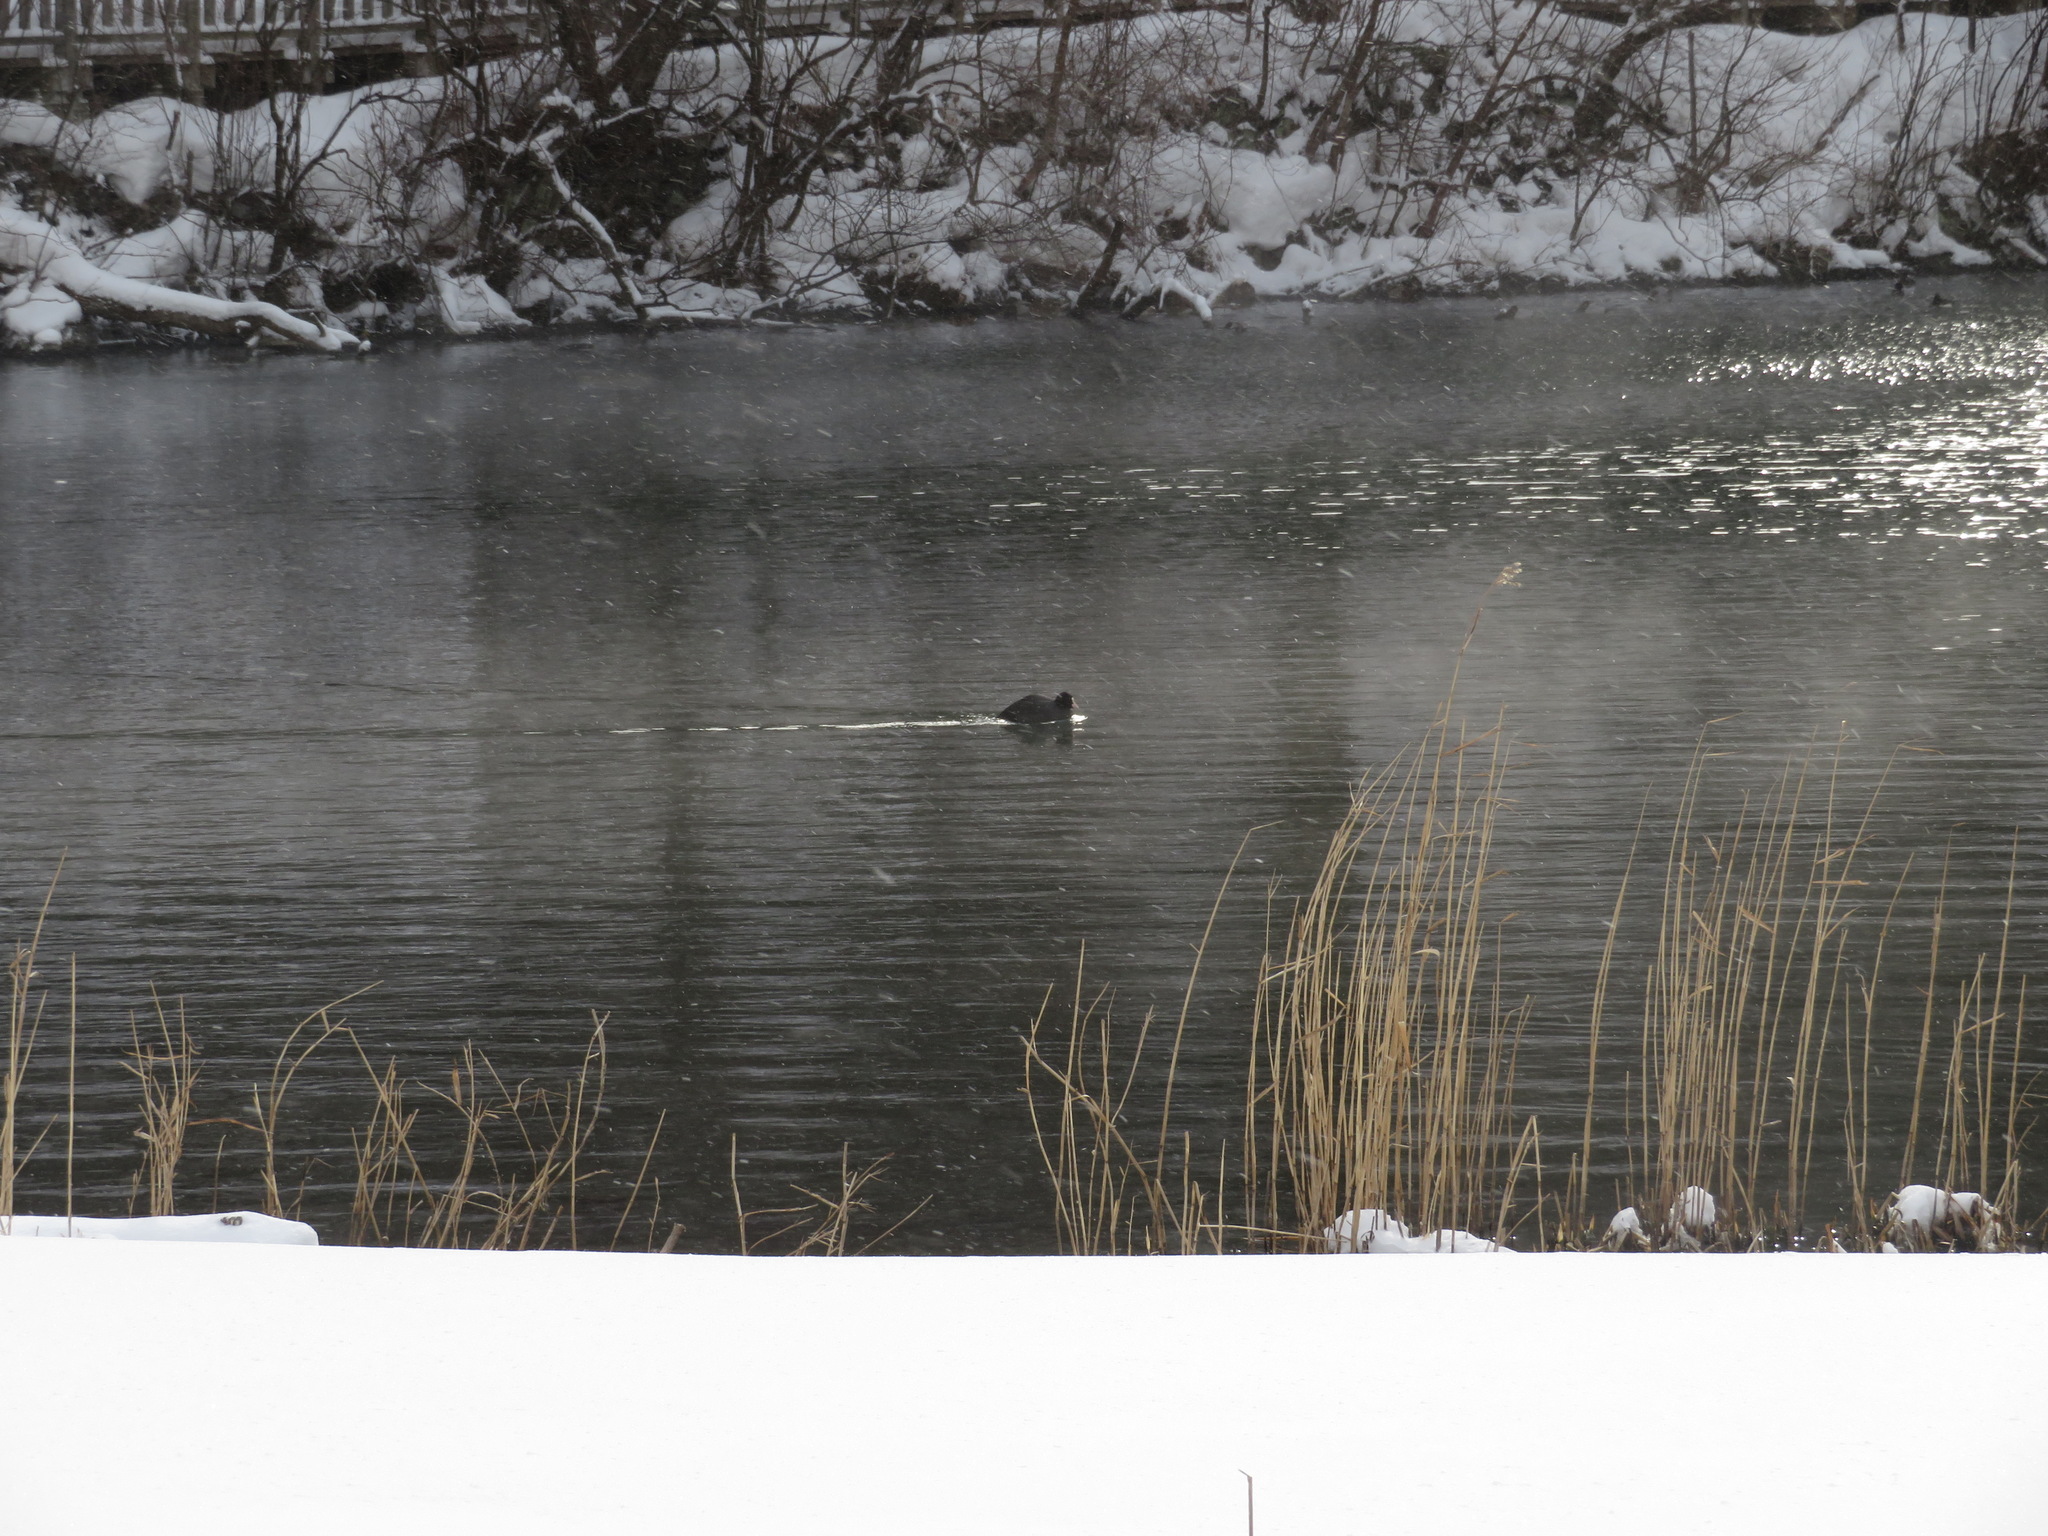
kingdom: Animalia
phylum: Chordata
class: Aves
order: Gruiformes
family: Rallidae
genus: Fulica
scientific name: Fulica atra
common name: Eurasian coot
